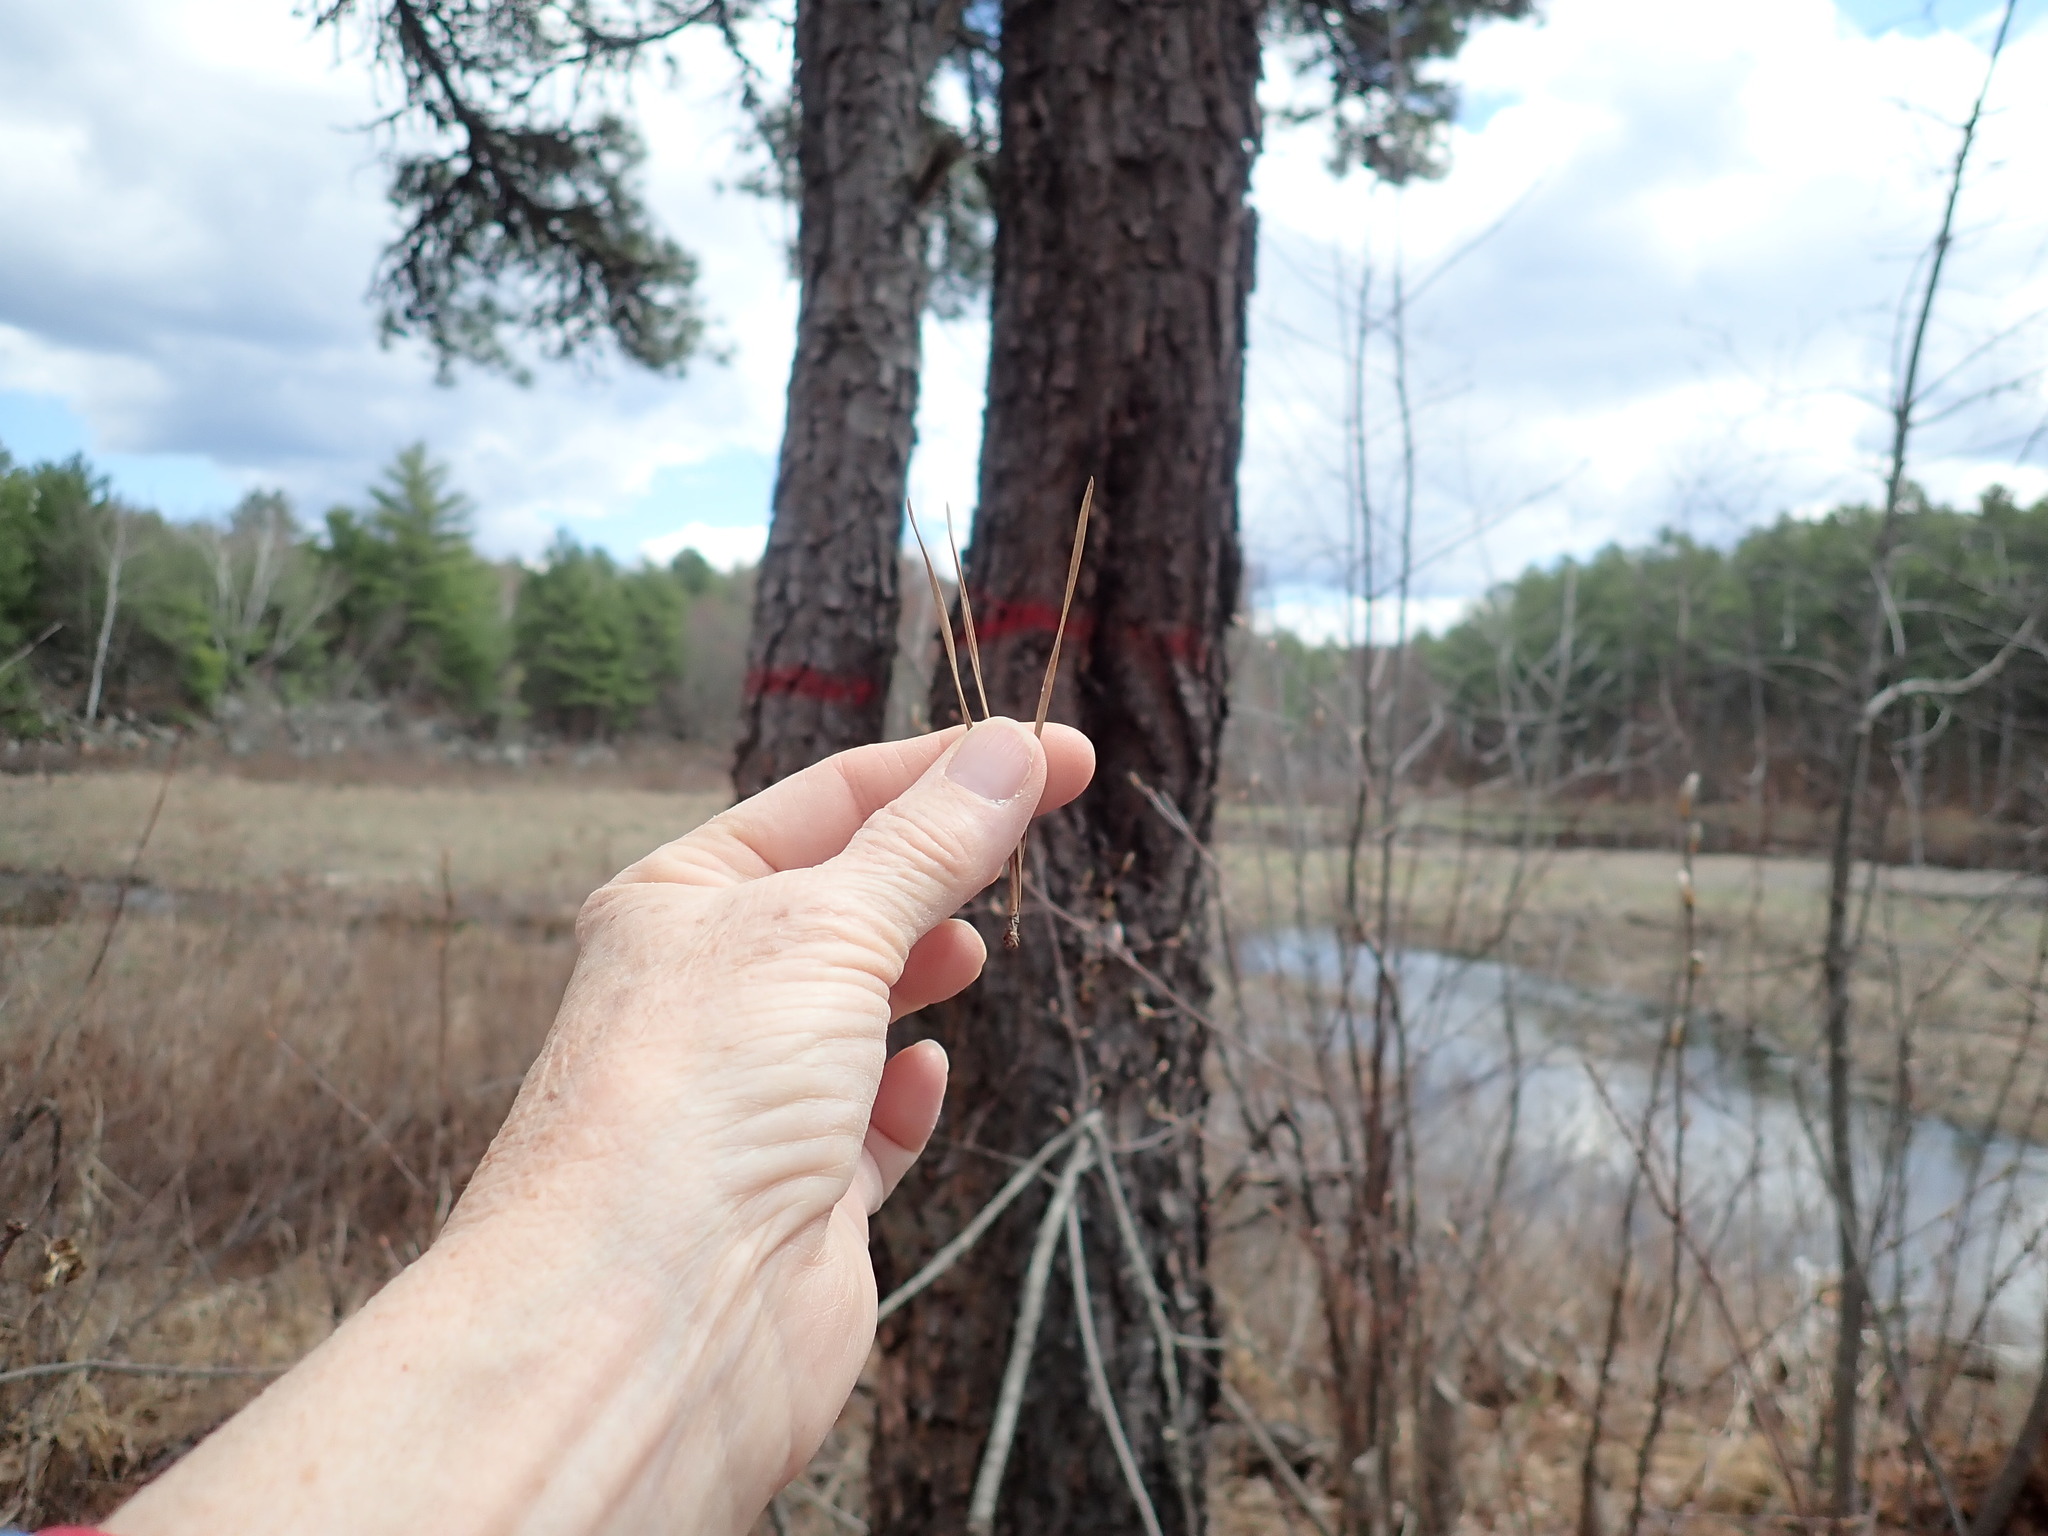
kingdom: Plantae
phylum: Tracheophyta
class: Pinopsida
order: Pinales
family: Pinaceae
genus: Pinus
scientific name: Pinus rigida
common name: Pitch pine
